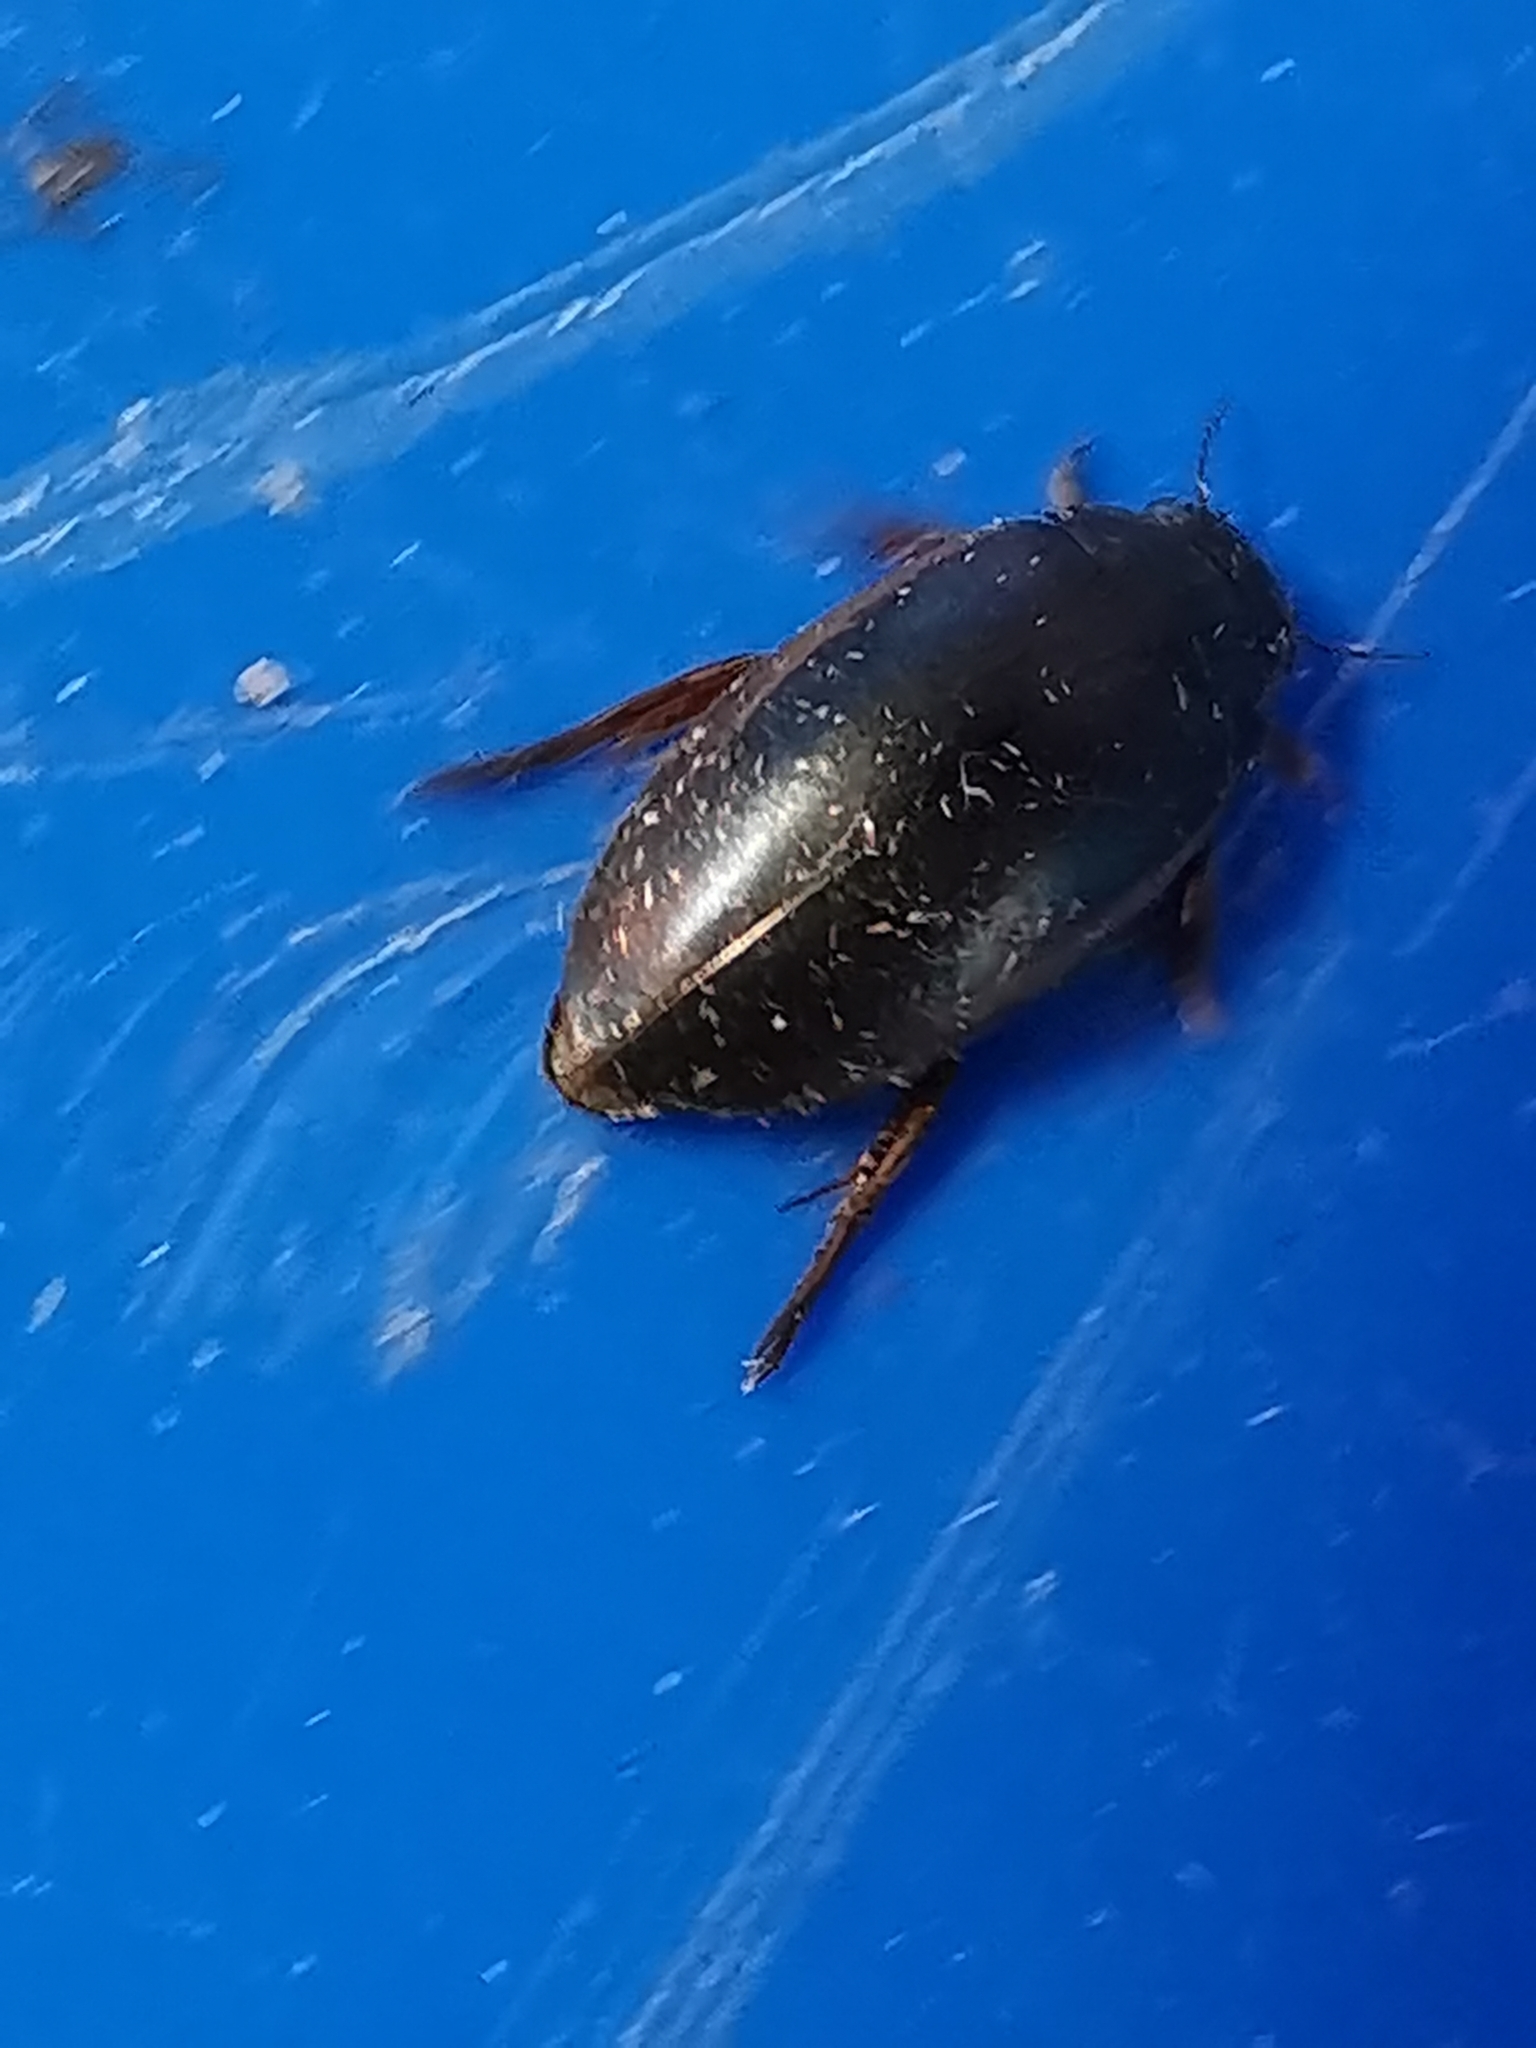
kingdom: Animalia
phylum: Arthropoda
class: Insecta
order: Coleoptera
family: Dytiscidae
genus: Ilybius
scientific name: Ilybius fuliginosus
